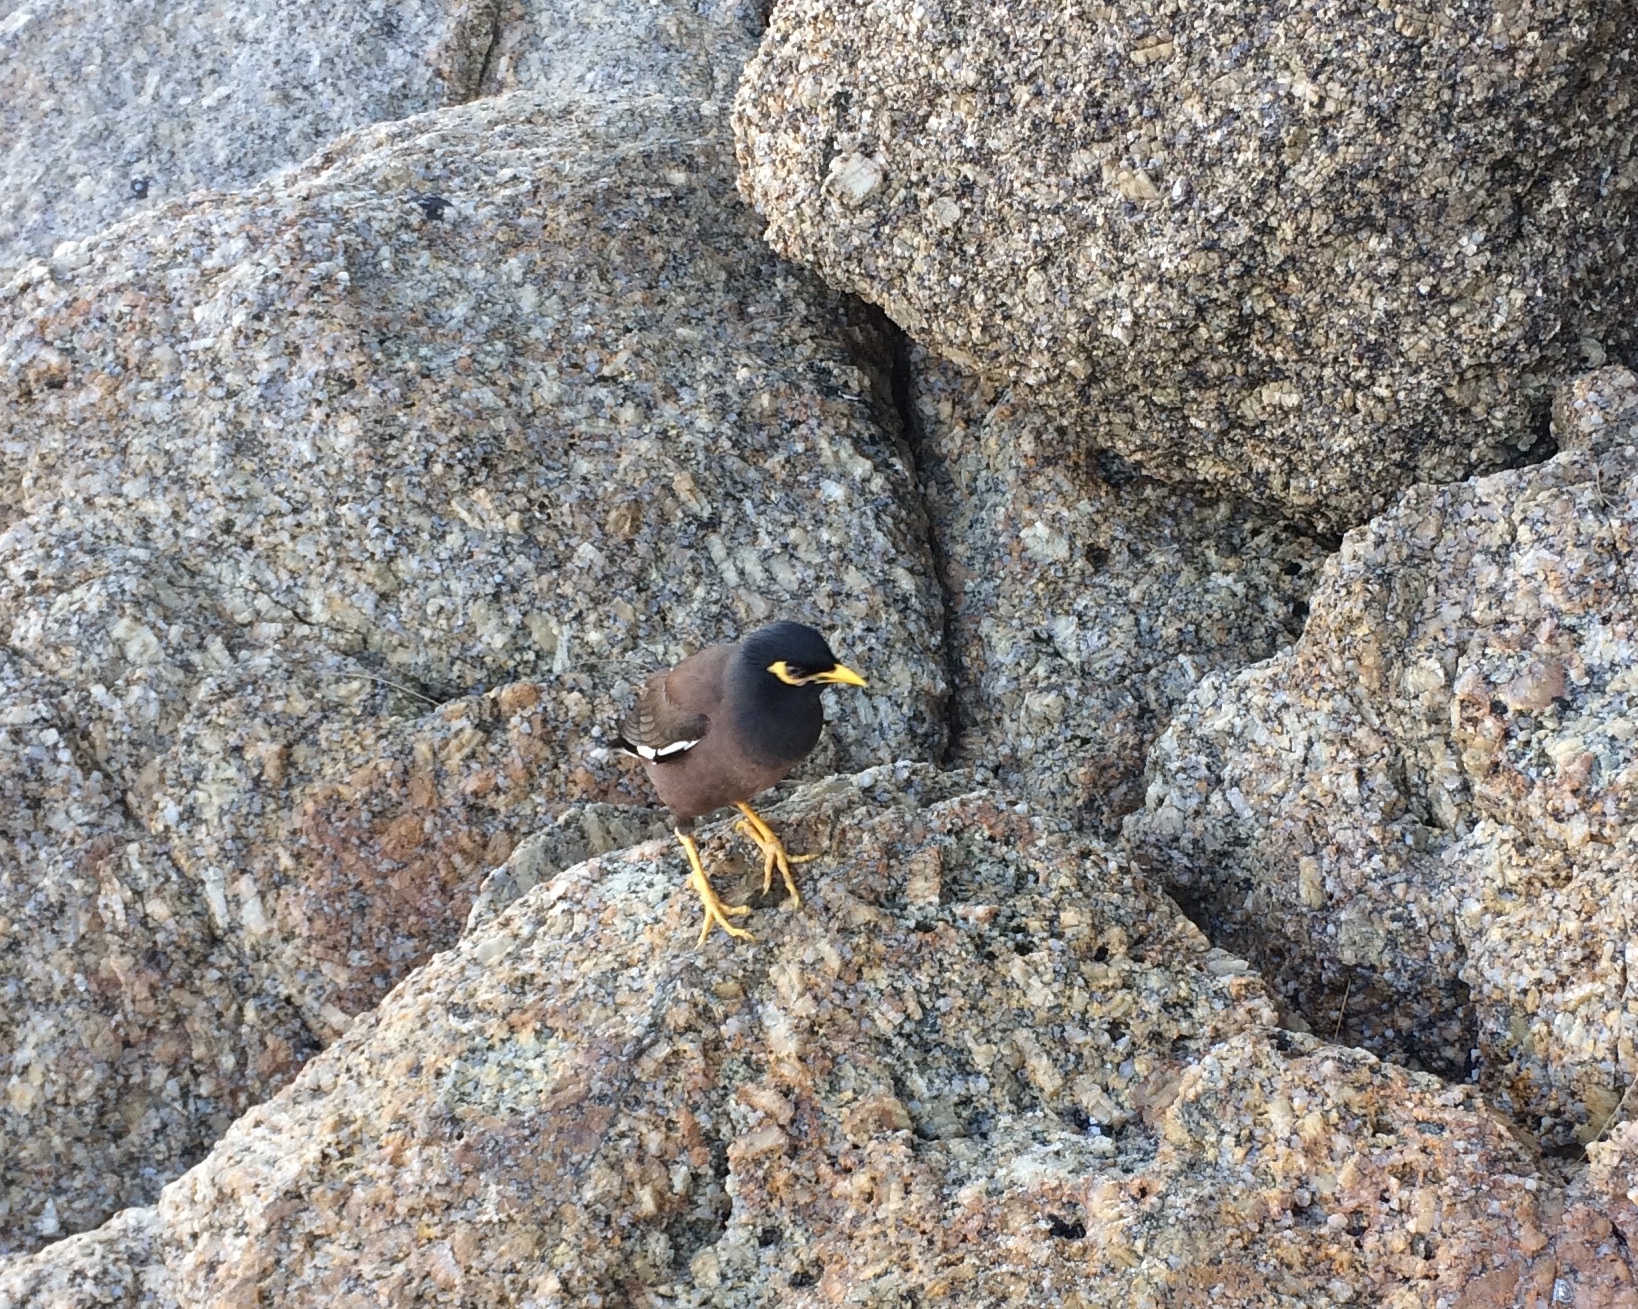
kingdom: Animalia
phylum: Chordata
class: Aves
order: Passeriformes
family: Sturnidae
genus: Acridotheres
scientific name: Acridotheres tristis
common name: Common myna
